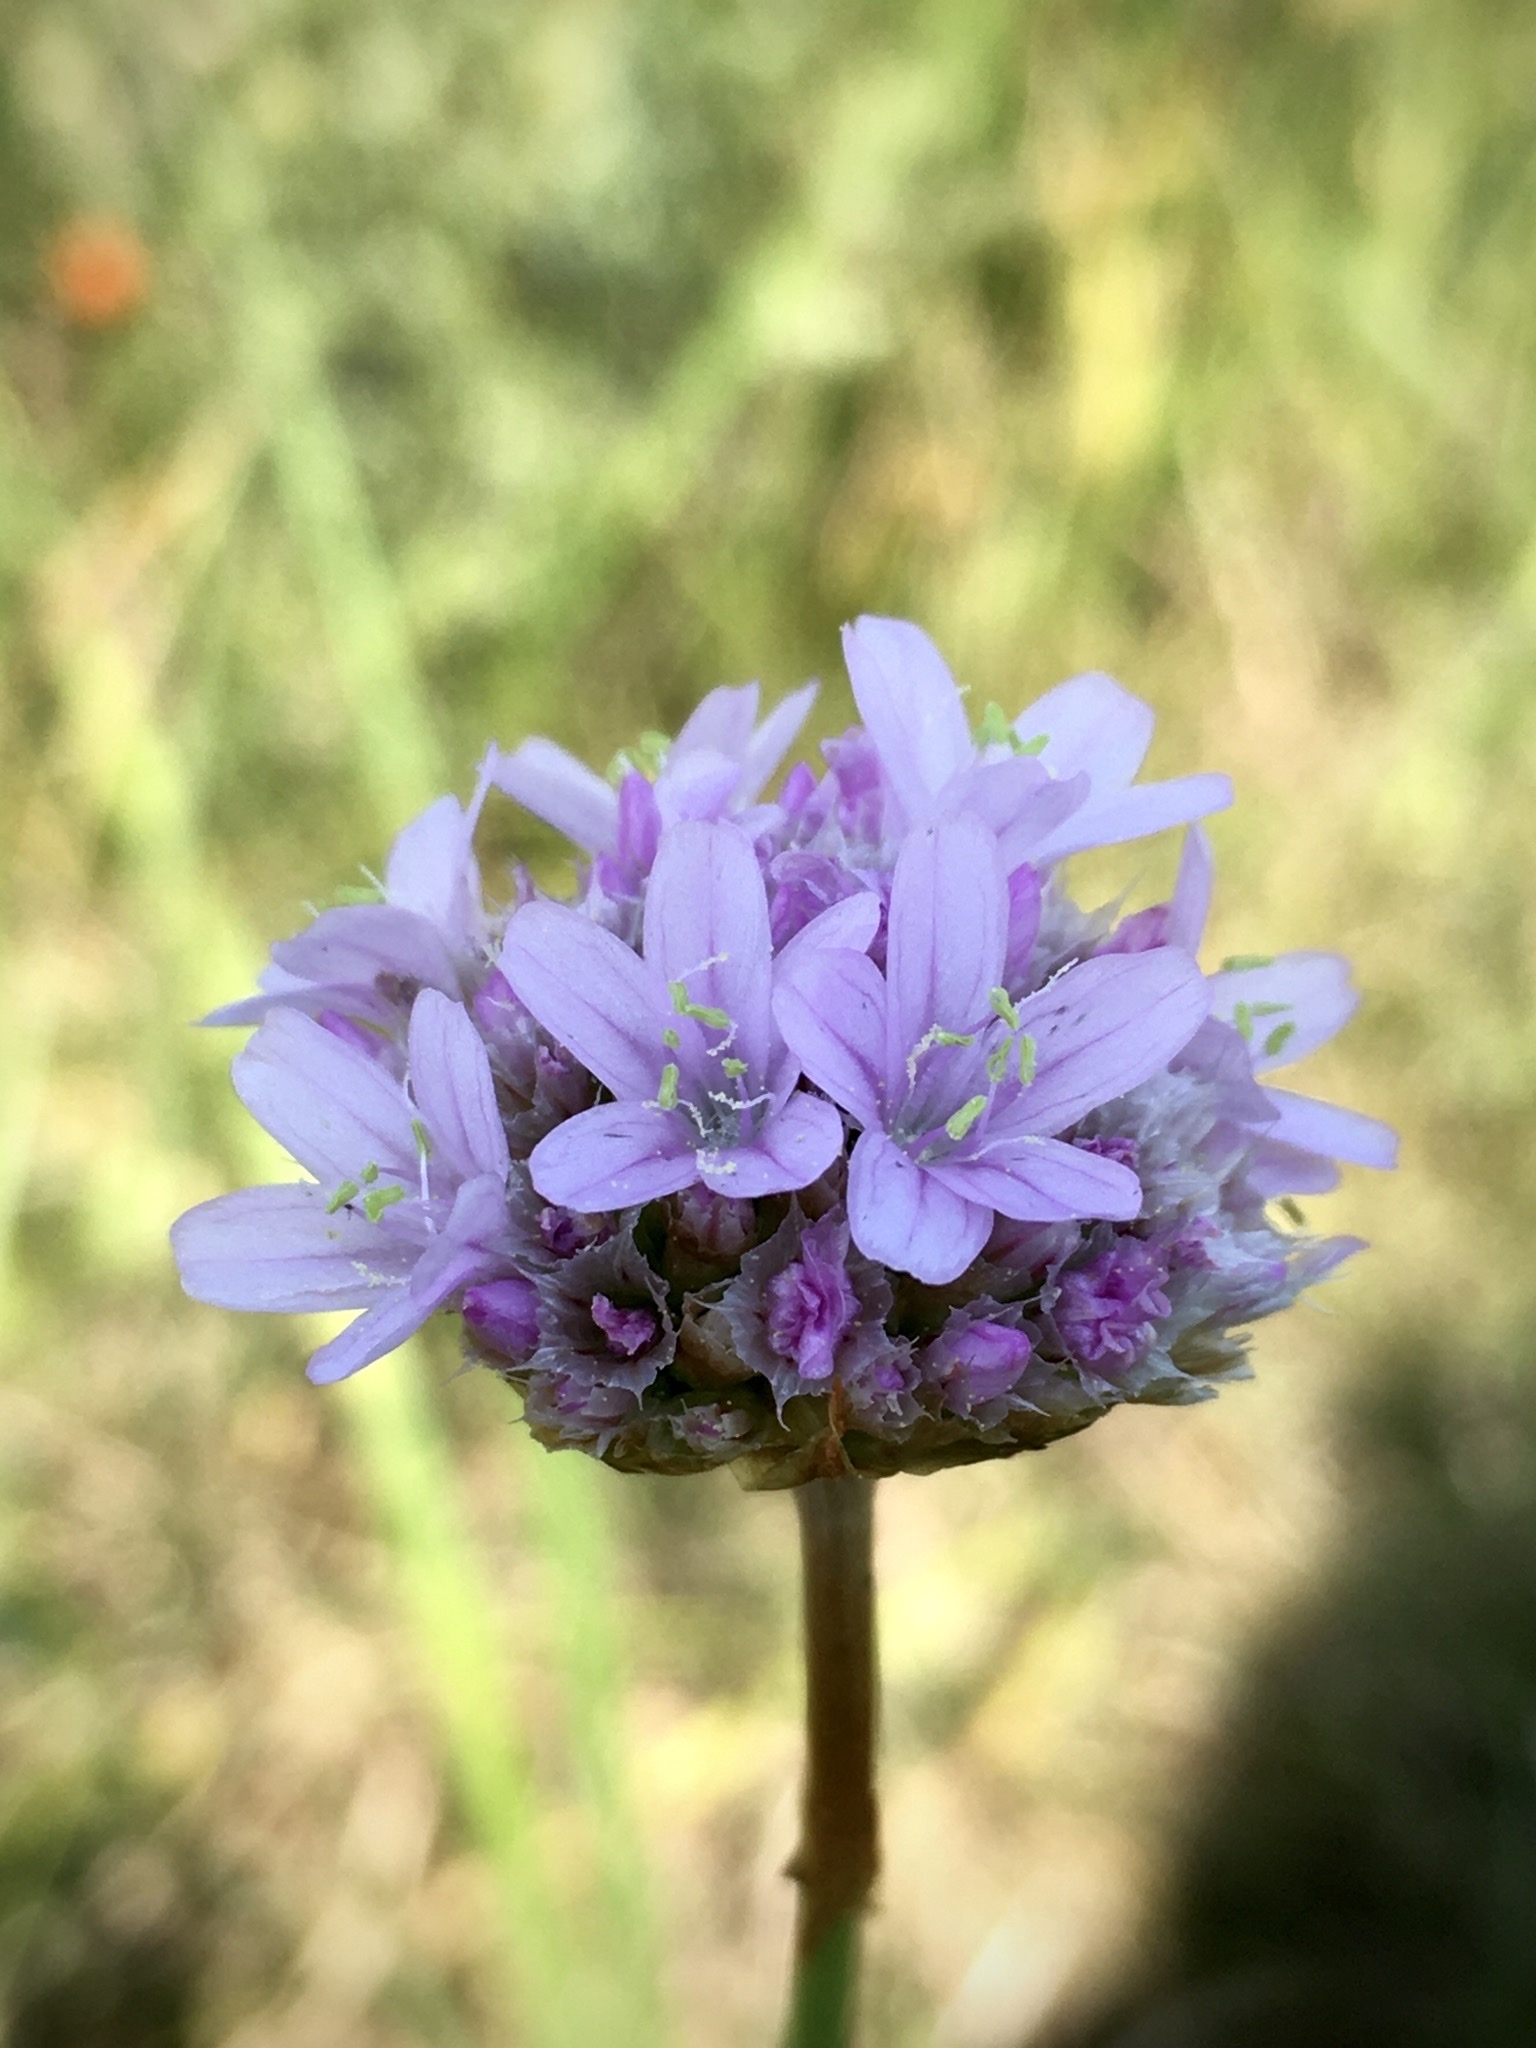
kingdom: Plantae
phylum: Tracheophyta
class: Magnoliopsida
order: Caryophyllales
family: Plumbaginaceae
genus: Armeria
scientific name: Armeria maritima
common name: Thrift
